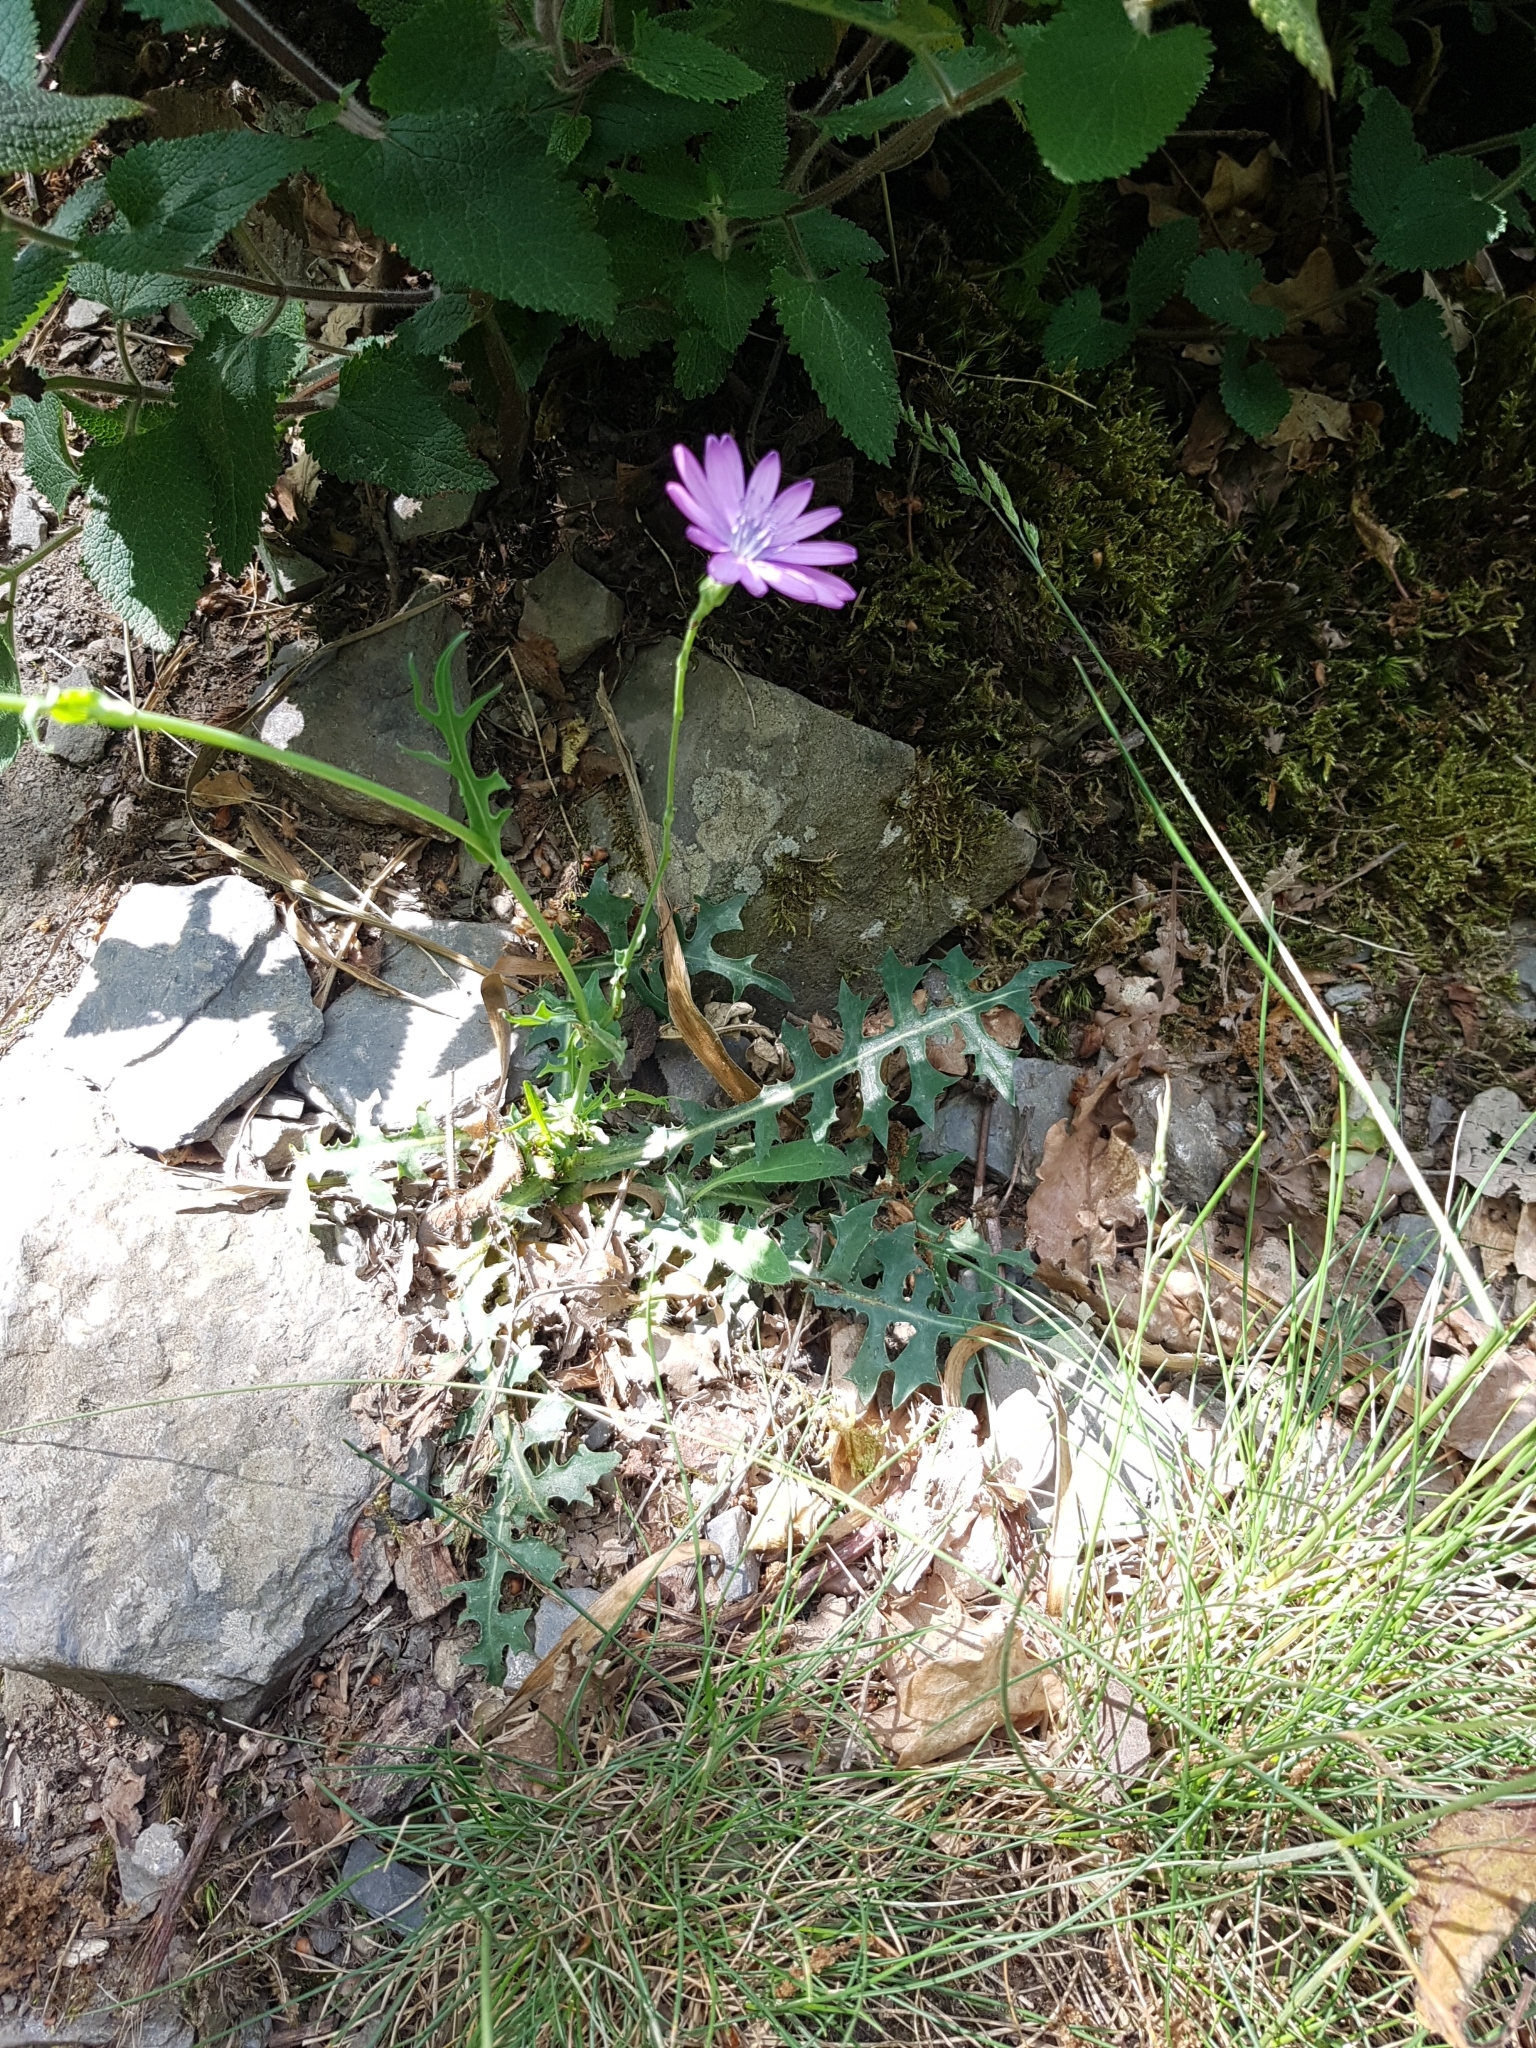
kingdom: Plantae
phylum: Tracheophyta
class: Magnoliopsida
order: Asterales
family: Asteraceae
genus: Lactuca
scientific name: Lactuca perennis
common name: Mountain lettuce
